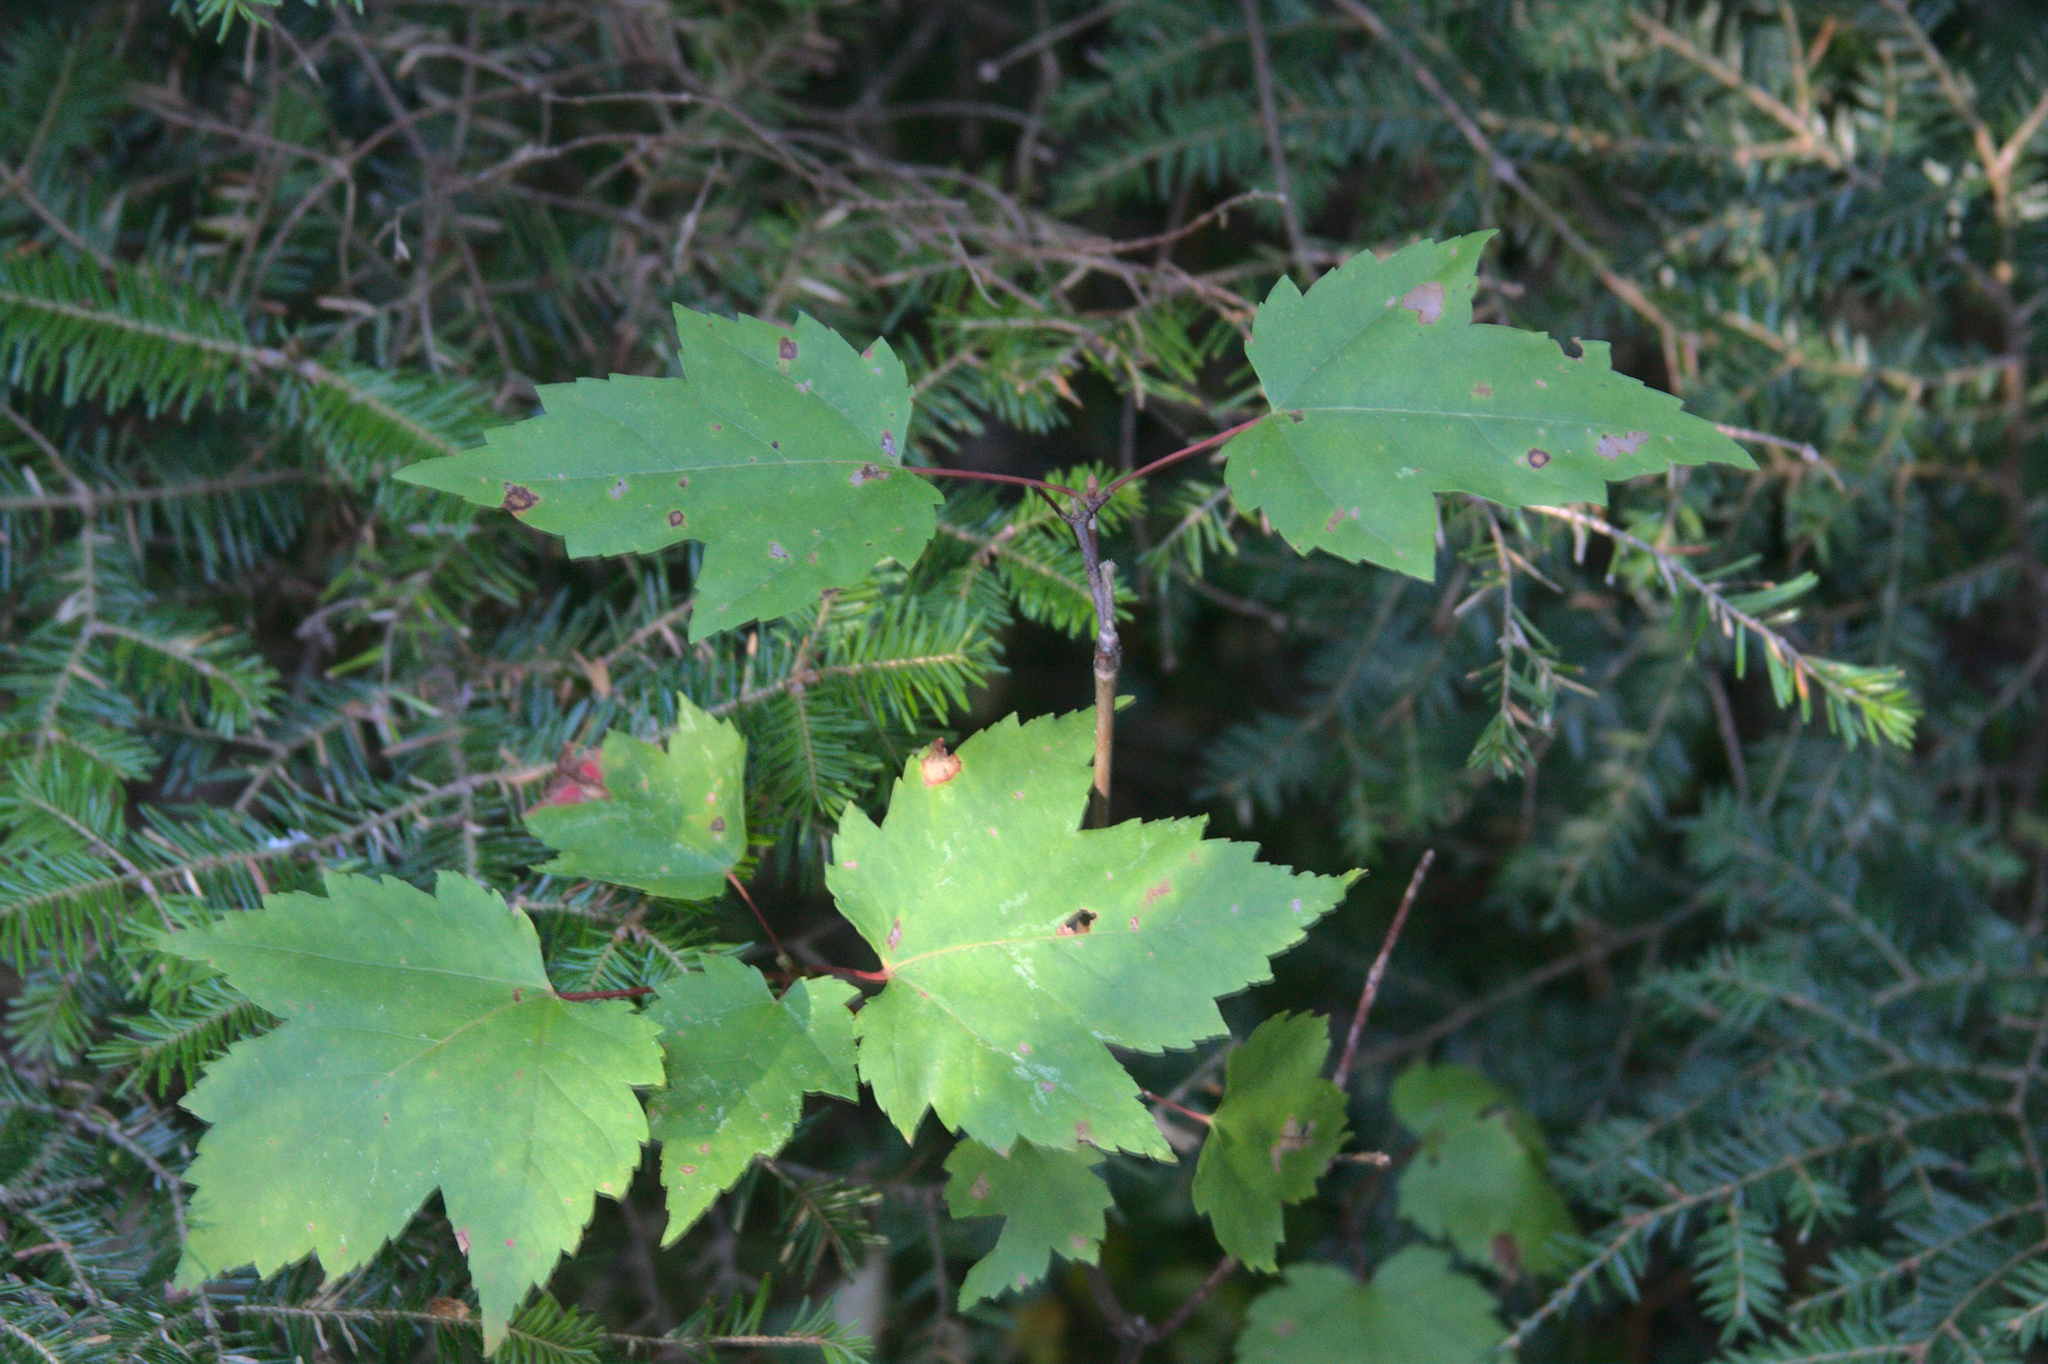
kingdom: Plantae
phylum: Tracheophyta
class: Magnoliopsida
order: Sapindales
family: Sapindaceae
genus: Acer
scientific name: Acer rubrum
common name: Red maple
